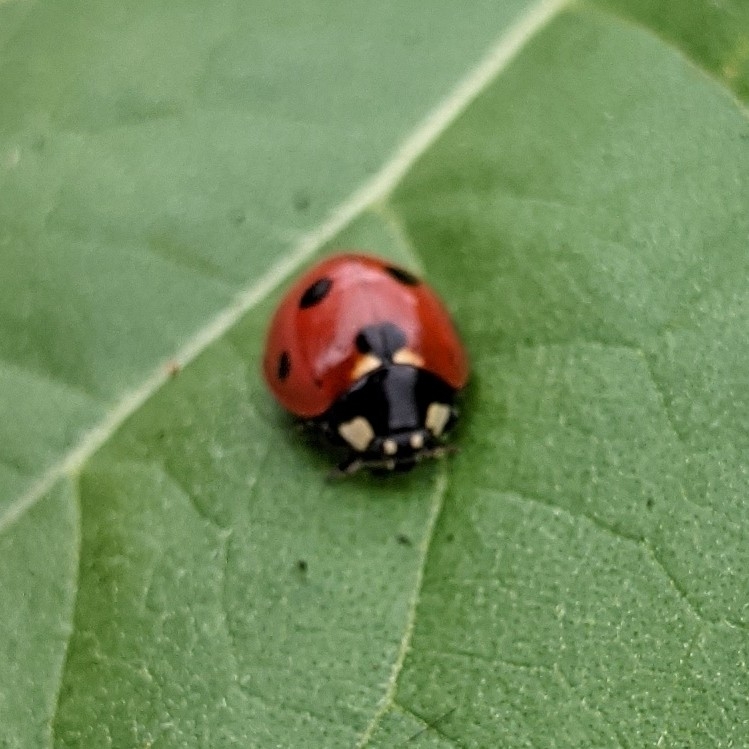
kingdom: Animalia
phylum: Arthropoda
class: Insecta
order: Coleoptera
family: Coccinellidae
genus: Coccinella
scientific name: Coccinella septempunctata
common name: Sevenspotted lady beetle
